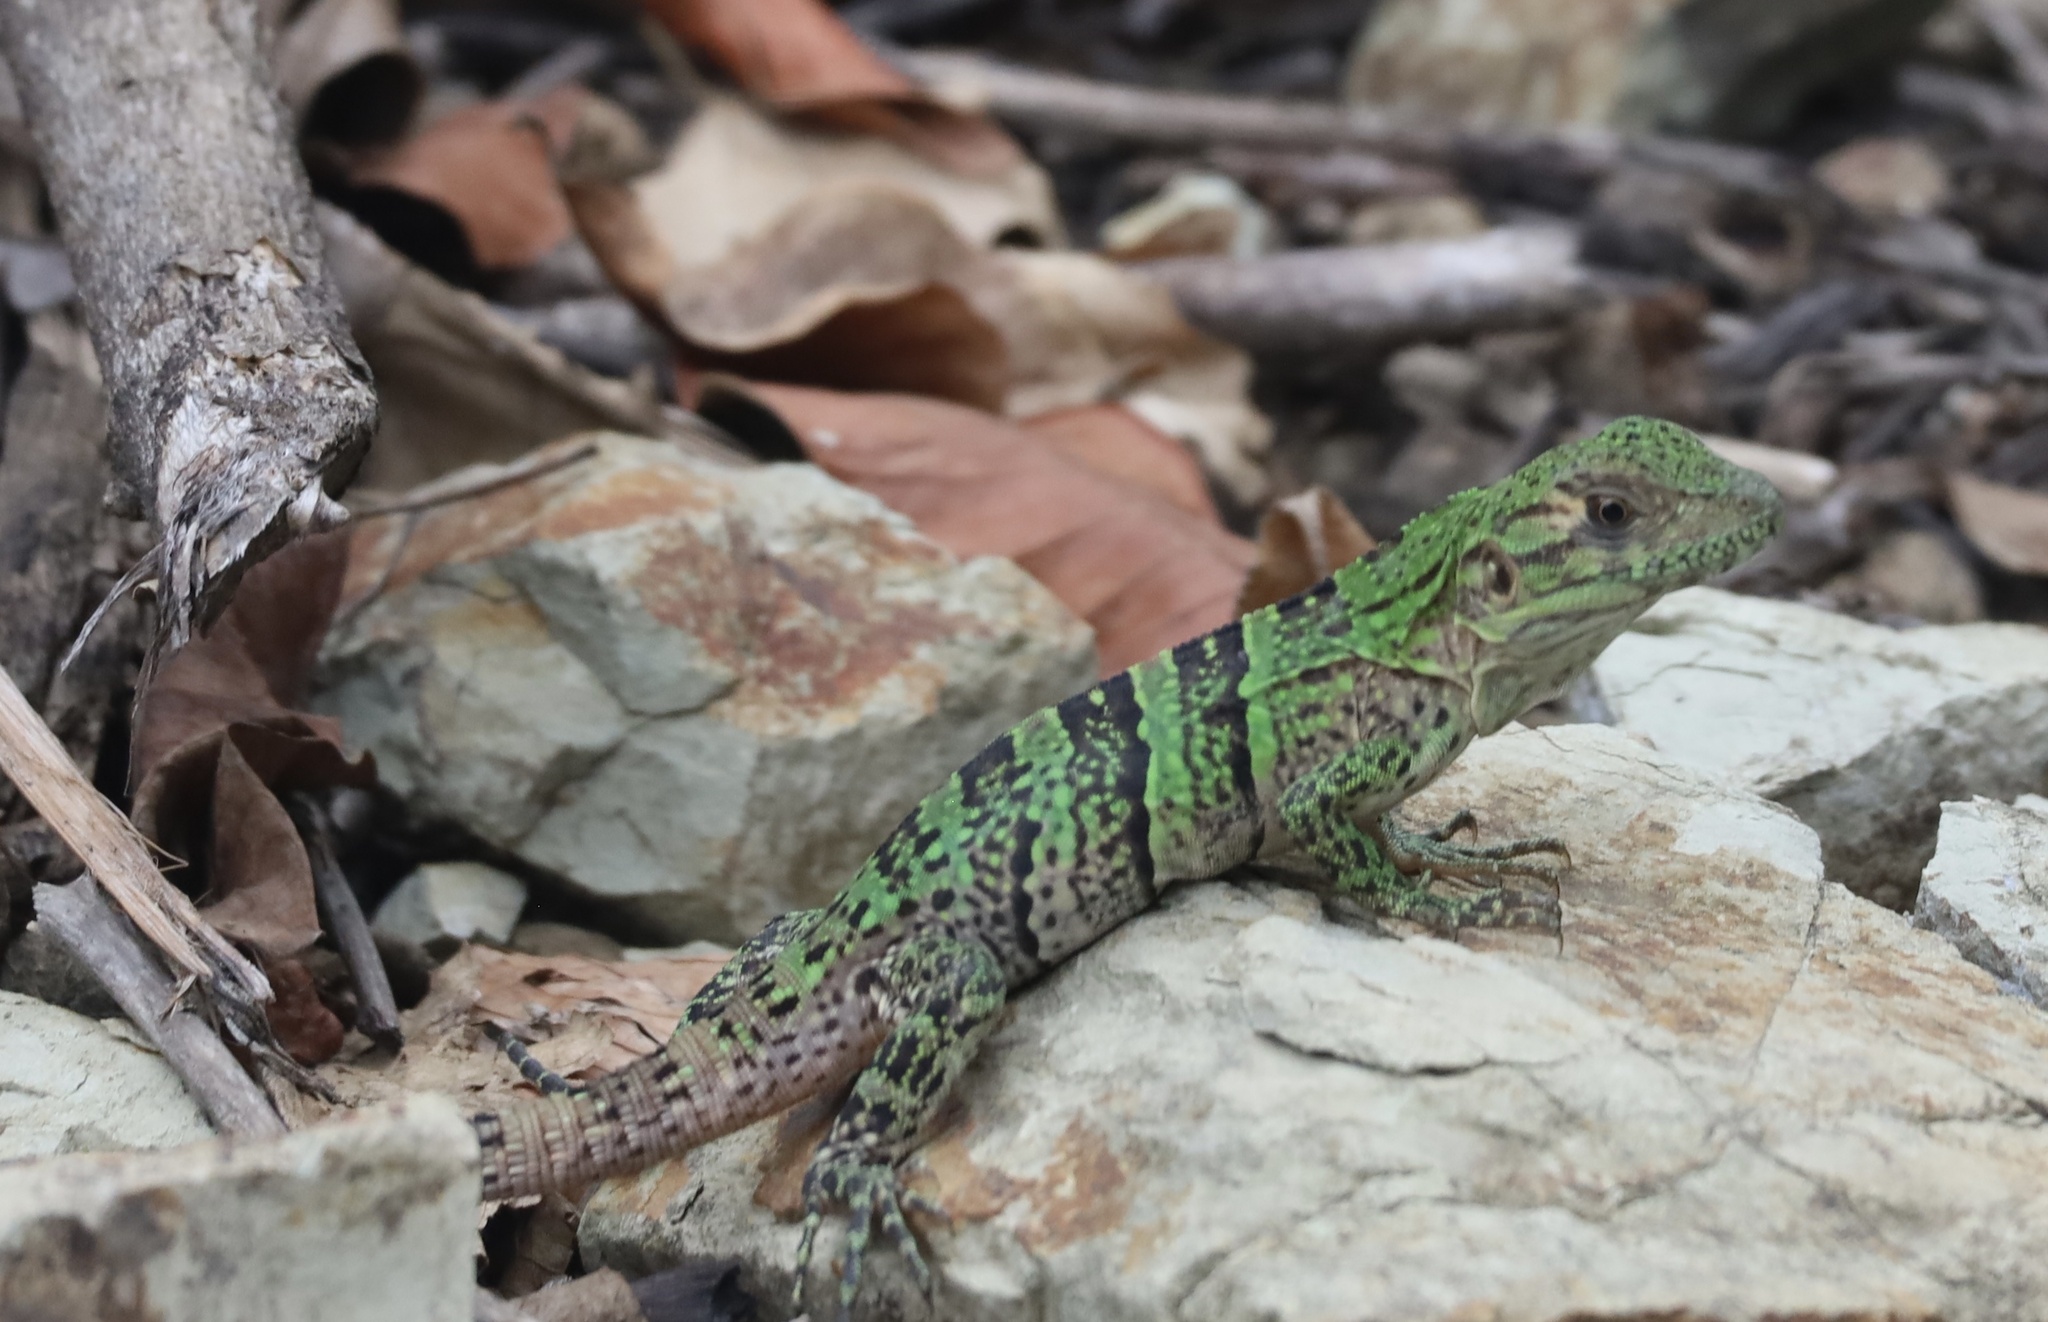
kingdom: Animalia
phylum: Chordata
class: Squamata
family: Iguanidae
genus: Ctenosaura
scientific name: Ctenosaura similis
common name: Black spiny-tailed iguana
